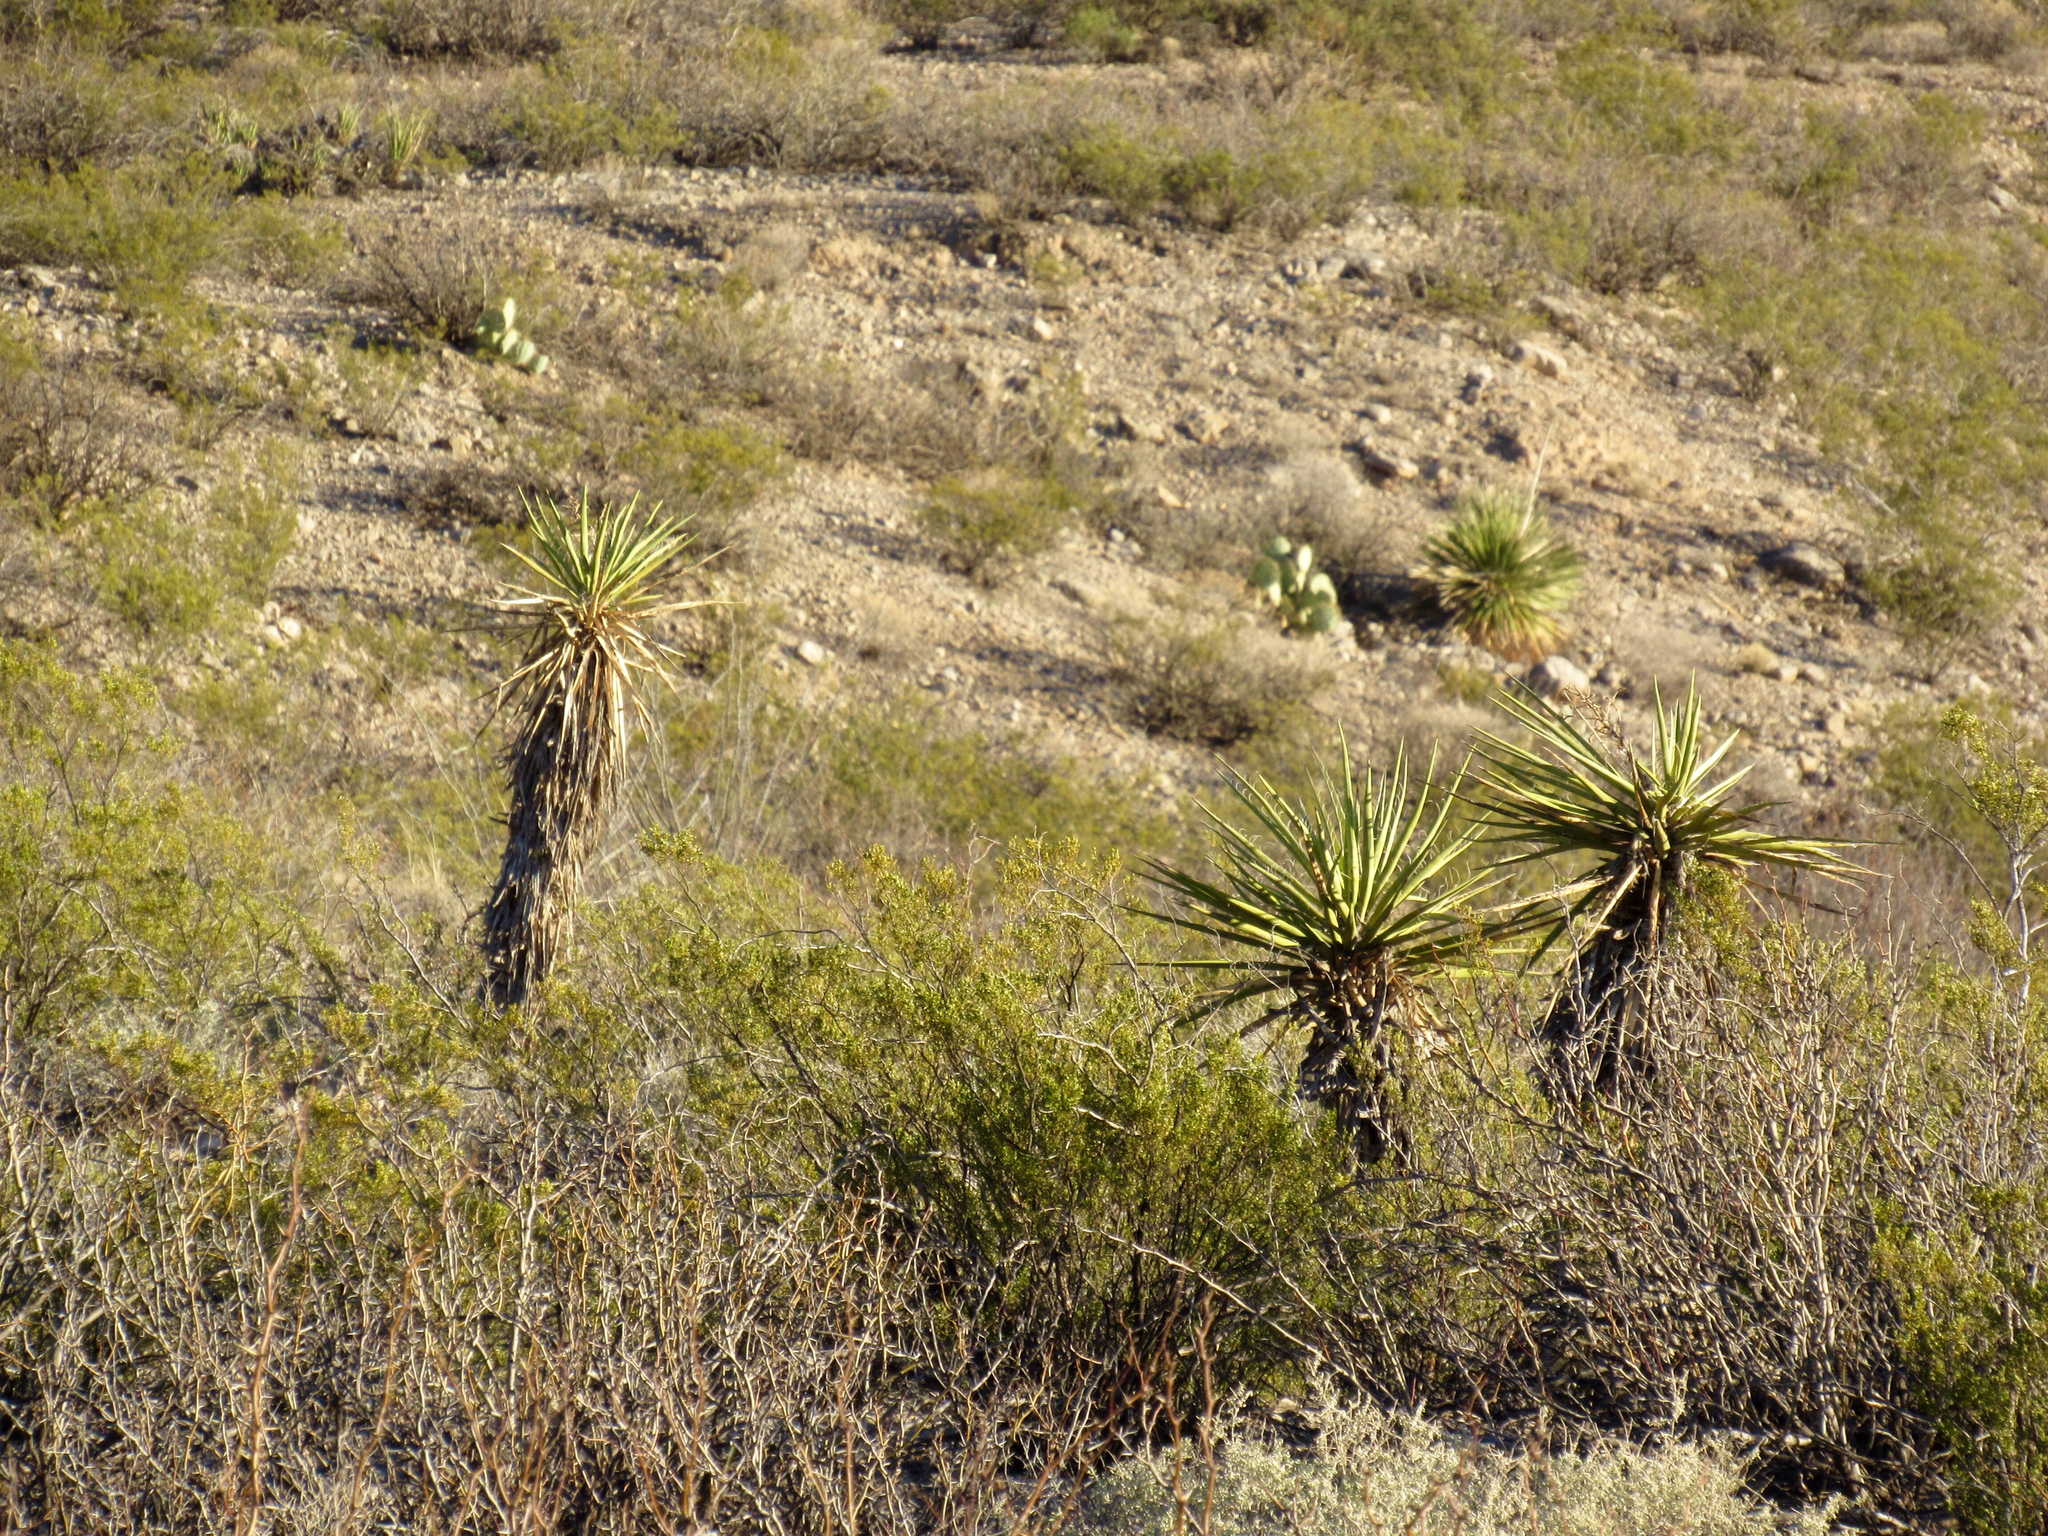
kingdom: Plantae
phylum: Tracheophyta
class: Liliopsida
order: Asparagales
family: Asparagaceae
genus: Yucca
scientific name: Yucca treculiana
